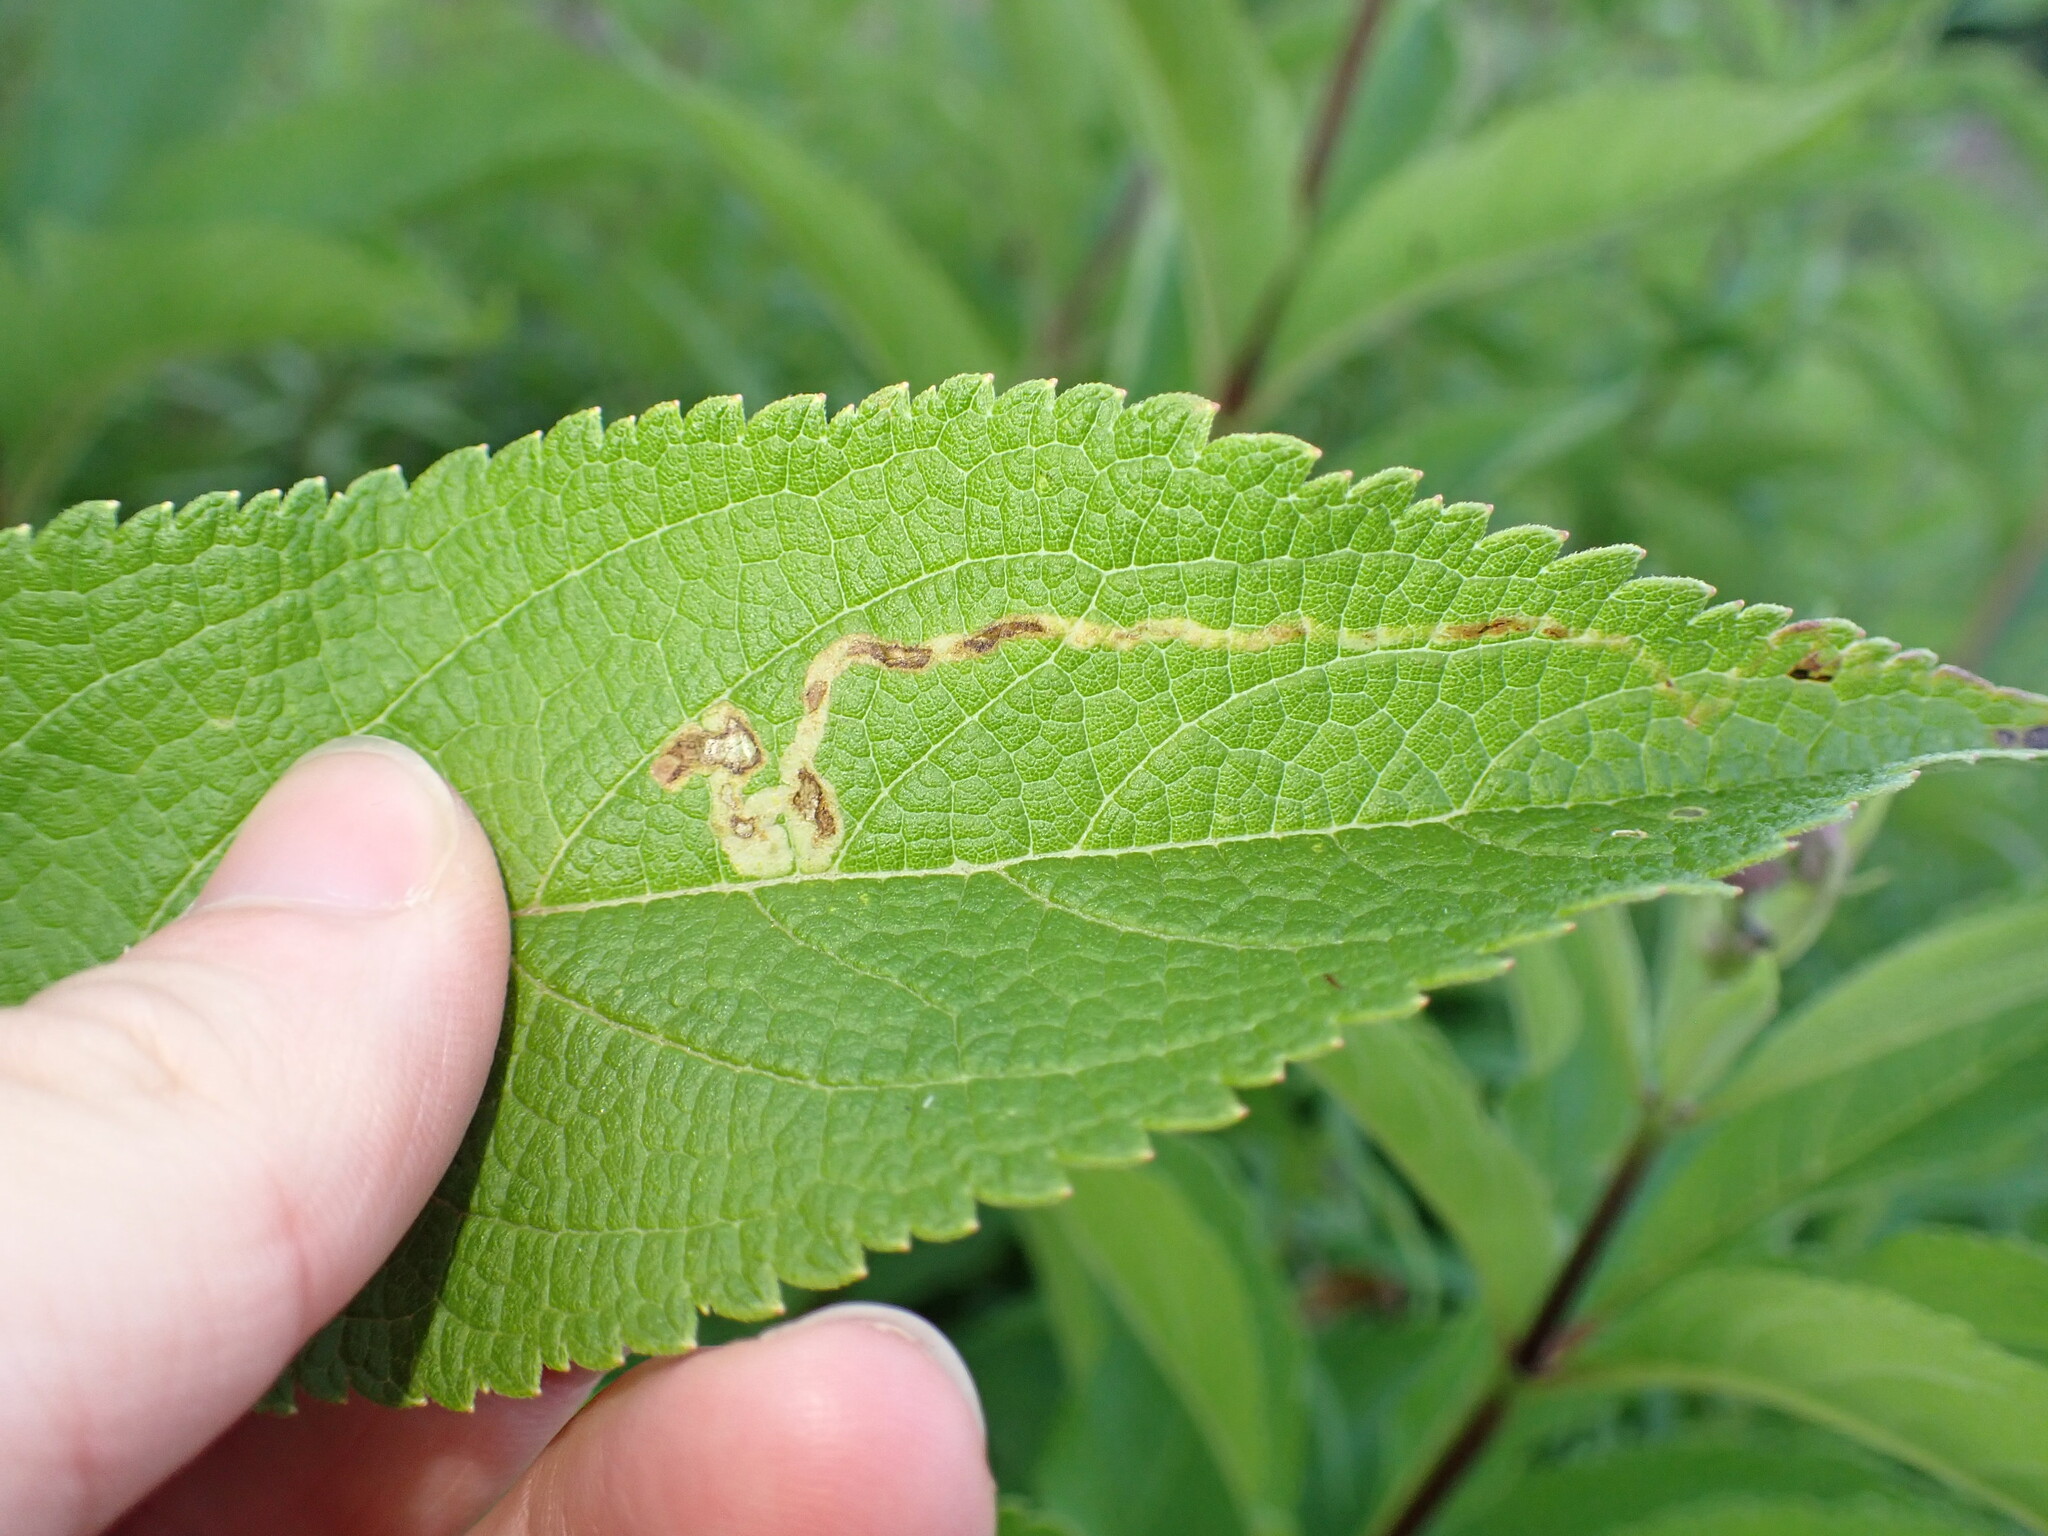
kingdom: Animalia
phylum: Arthropoda
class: Insecta
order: Diptera
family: Agromyzidae
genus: Liriomyza
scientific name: Liriomyza cracentis
